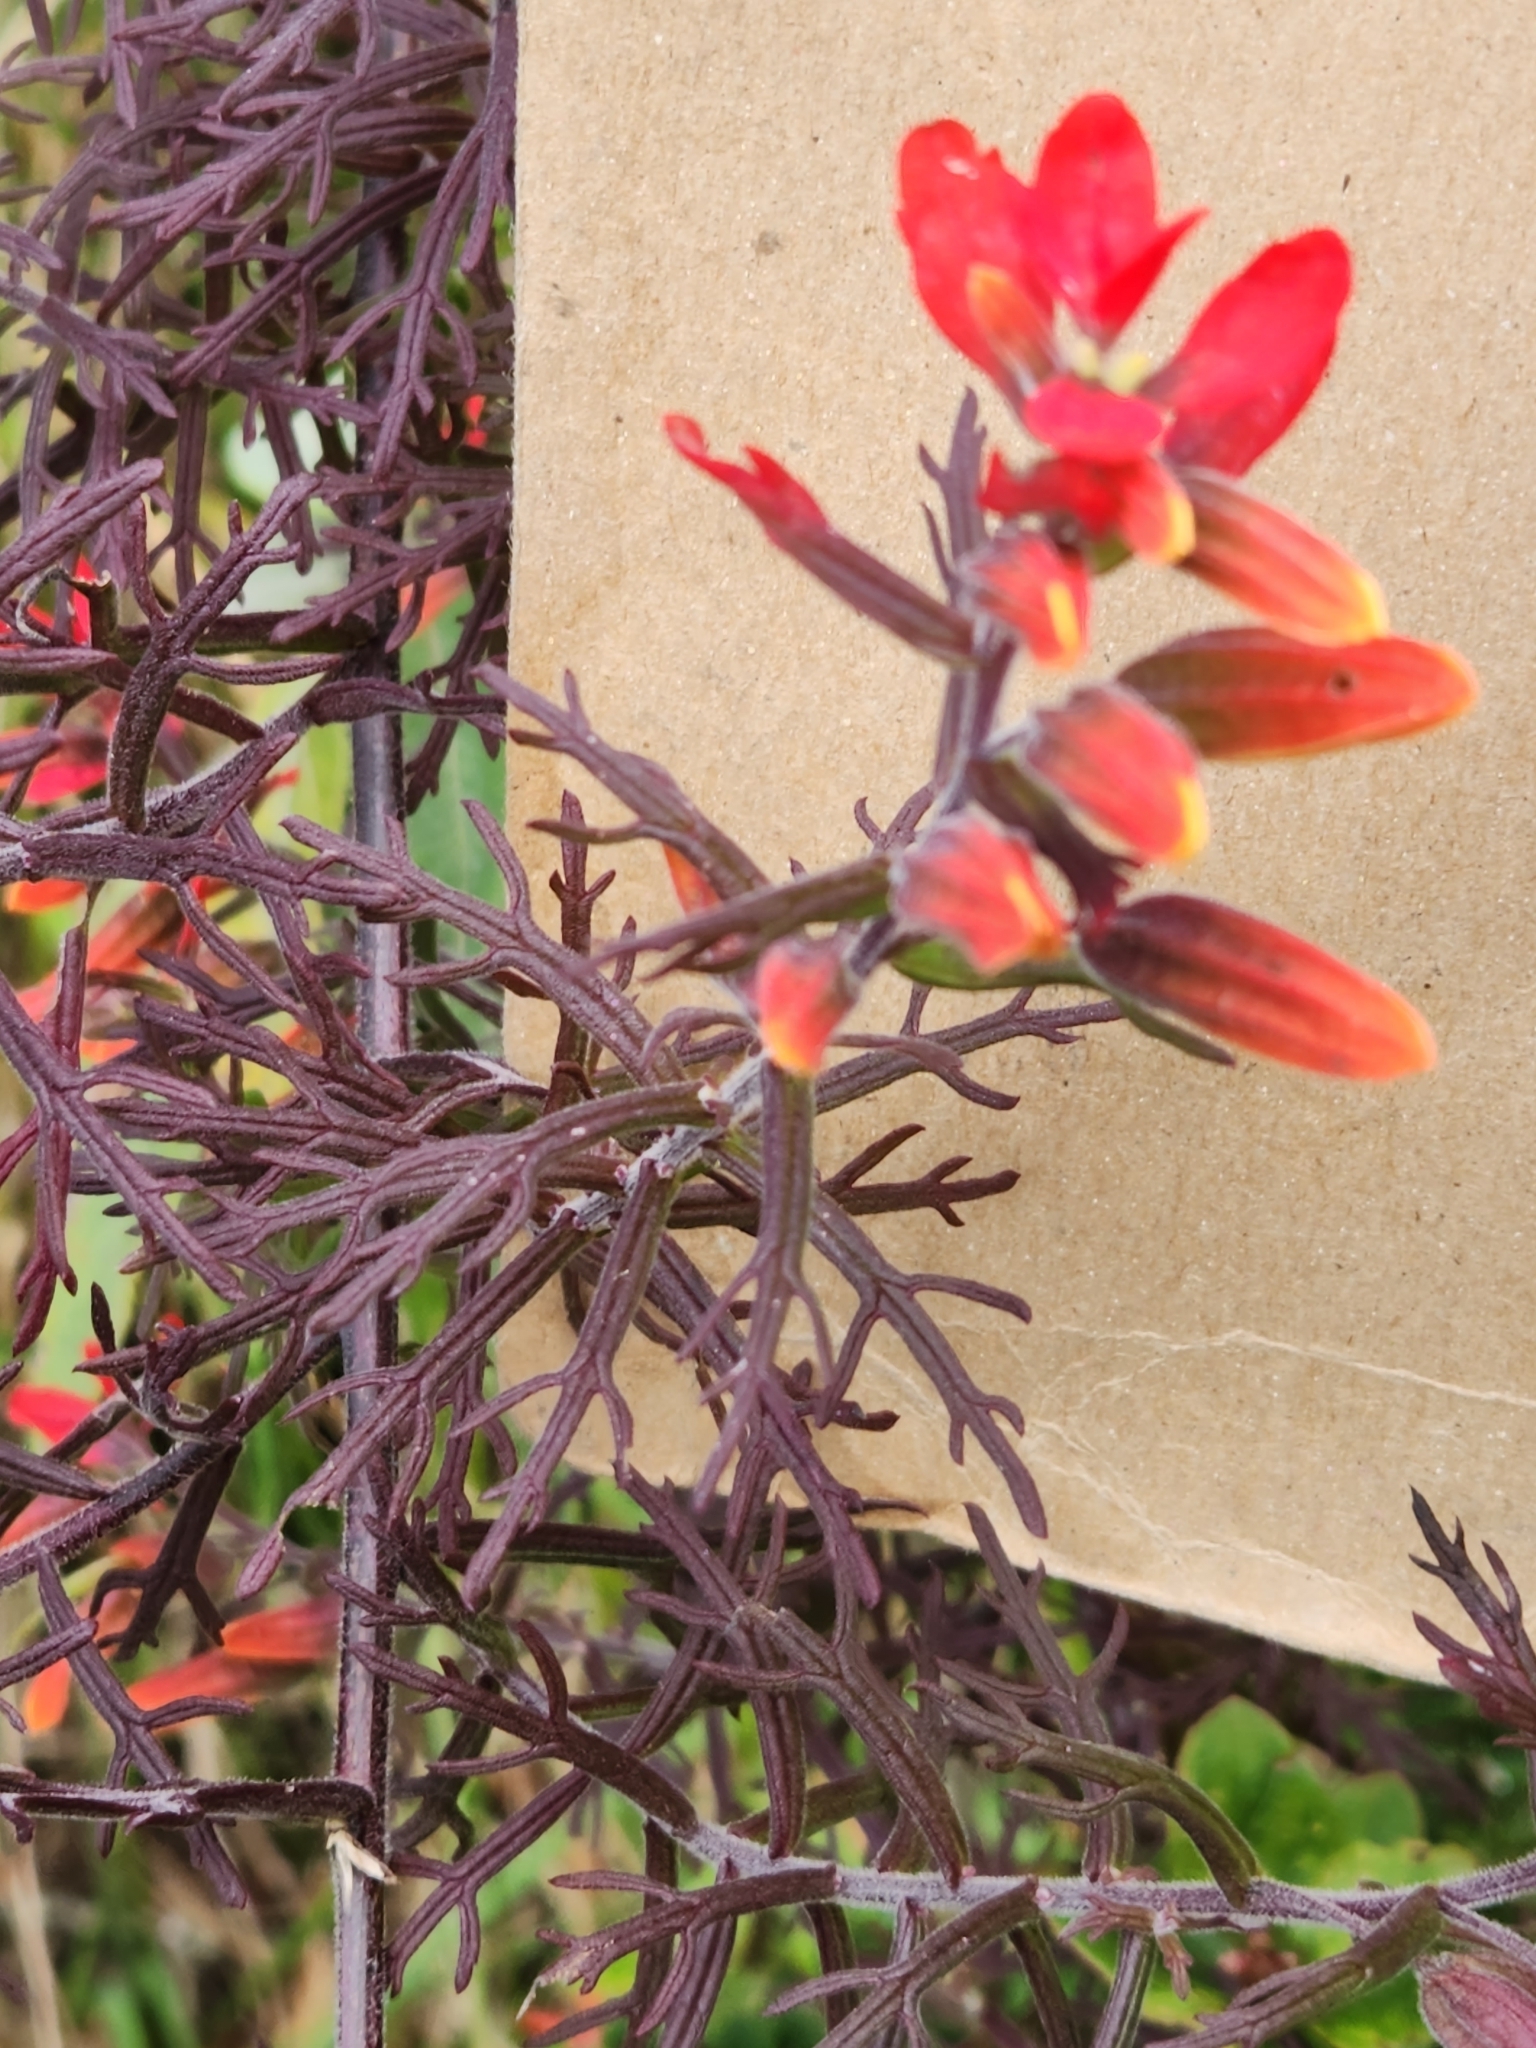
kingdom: Plantae
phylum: Tracheophyta
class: Magnoliopsida
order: Lamiales
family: Orobanchaceae
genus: Castilleja
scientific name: Castilleja fissifolia
